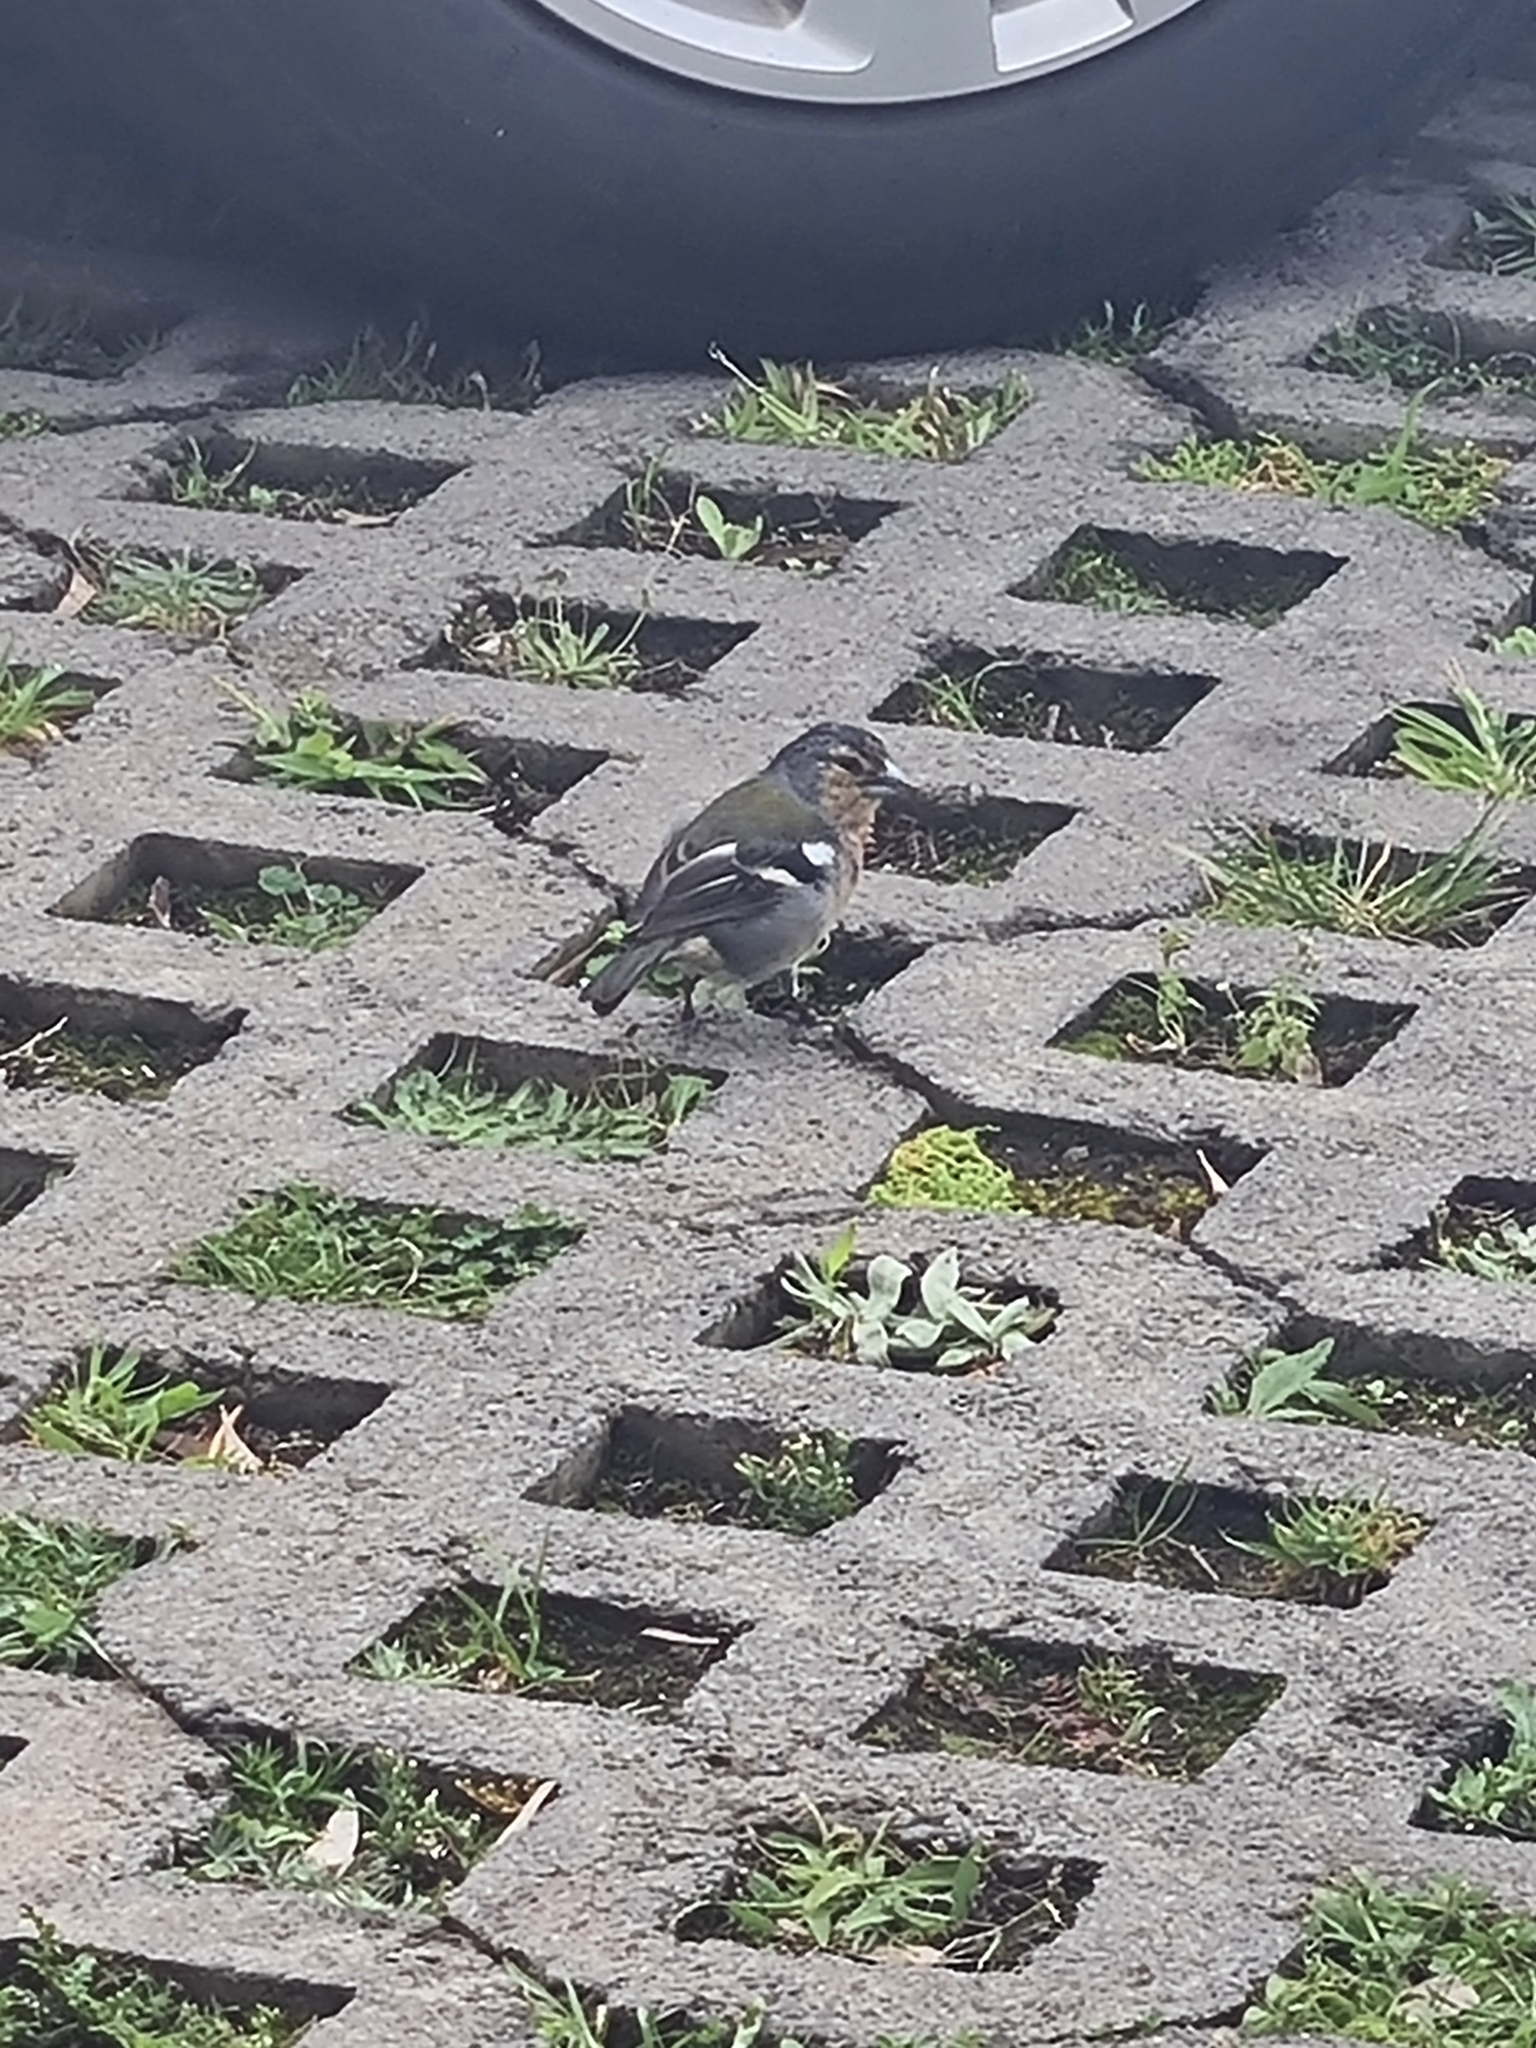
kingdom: Animalia
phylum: Chordata
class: Aves
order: Passeriformes
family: Fringillidae
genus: Fringilla
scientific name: Fringilla moreletti
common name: Azores chaffinch
